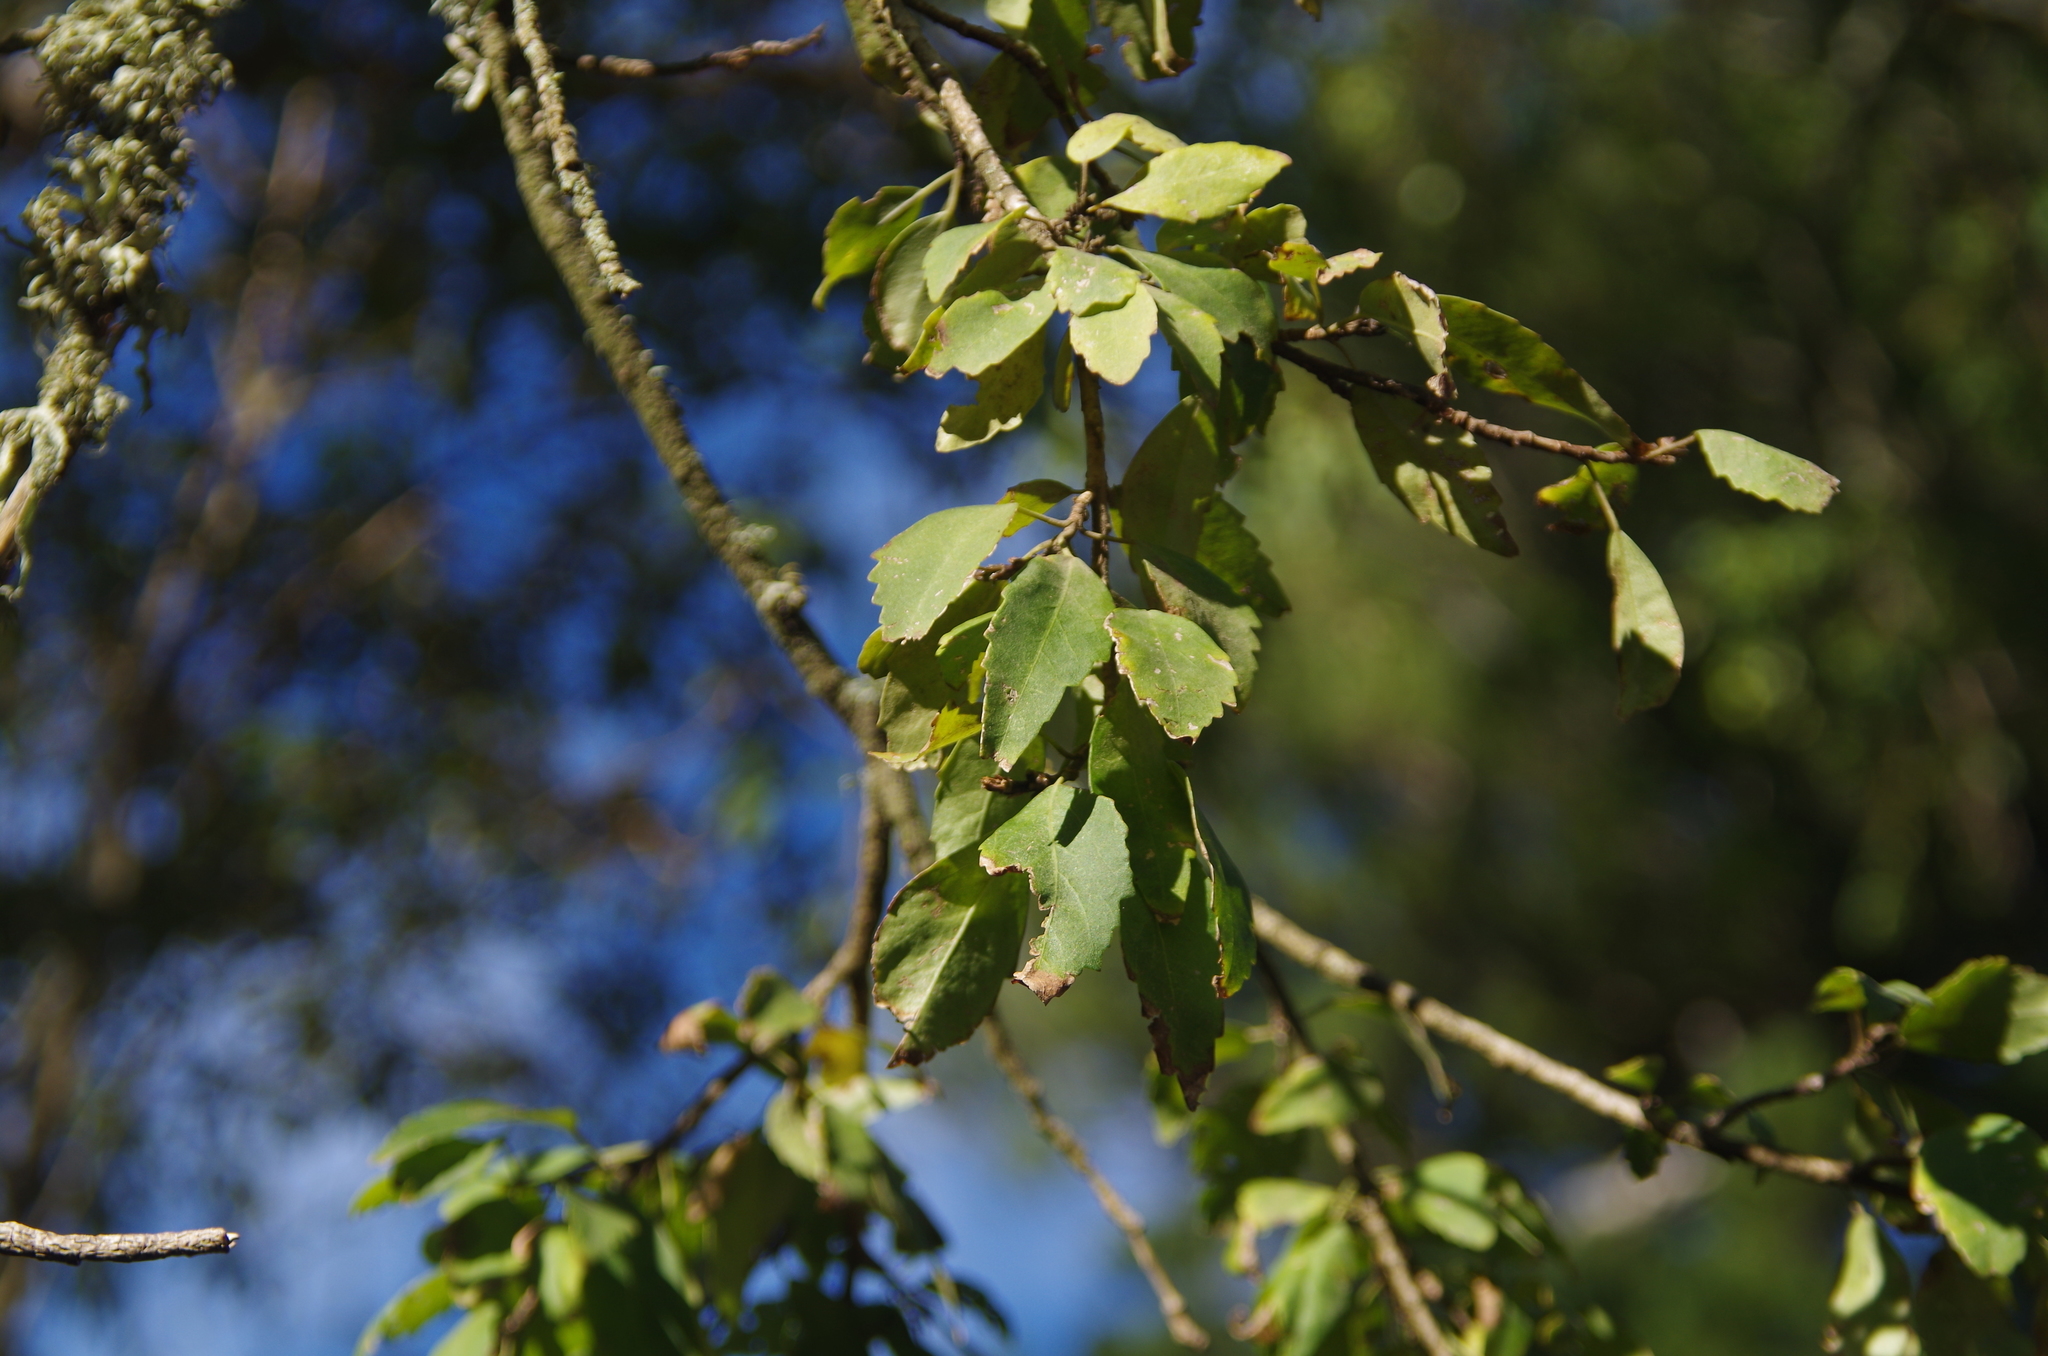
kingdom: Plantae
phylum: Tracheophyta
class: Magnoliopsida
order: Malvales
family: Malvaceae
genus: Plagianthus
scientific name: Plagianthus regius
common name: Manatu
